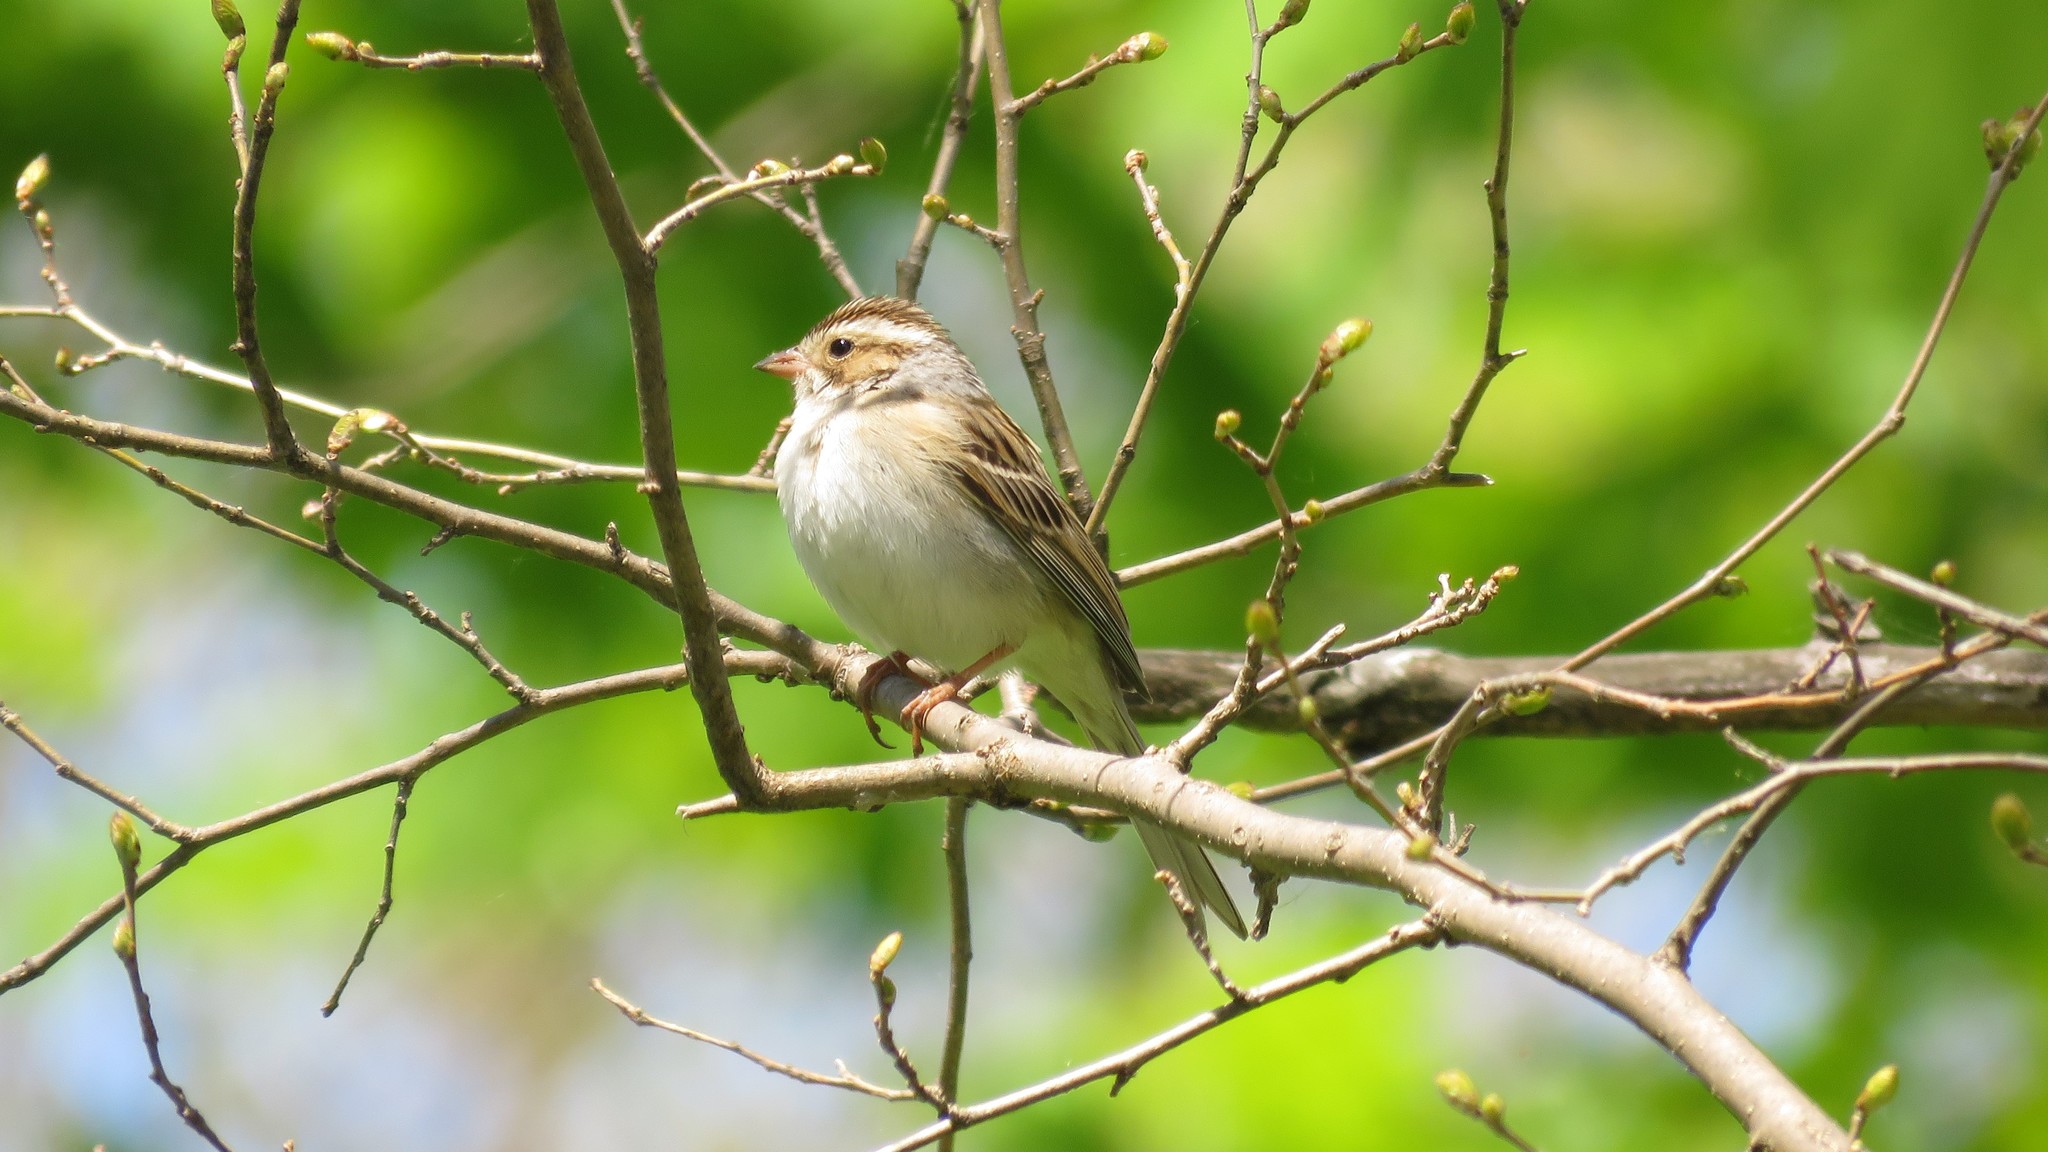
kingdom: Animalia
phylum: Chordata
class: Aves
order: Passeriformes
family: Passerellidae
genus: Spizella
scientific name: Spizella pallida
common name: Clay-colored sparrow
